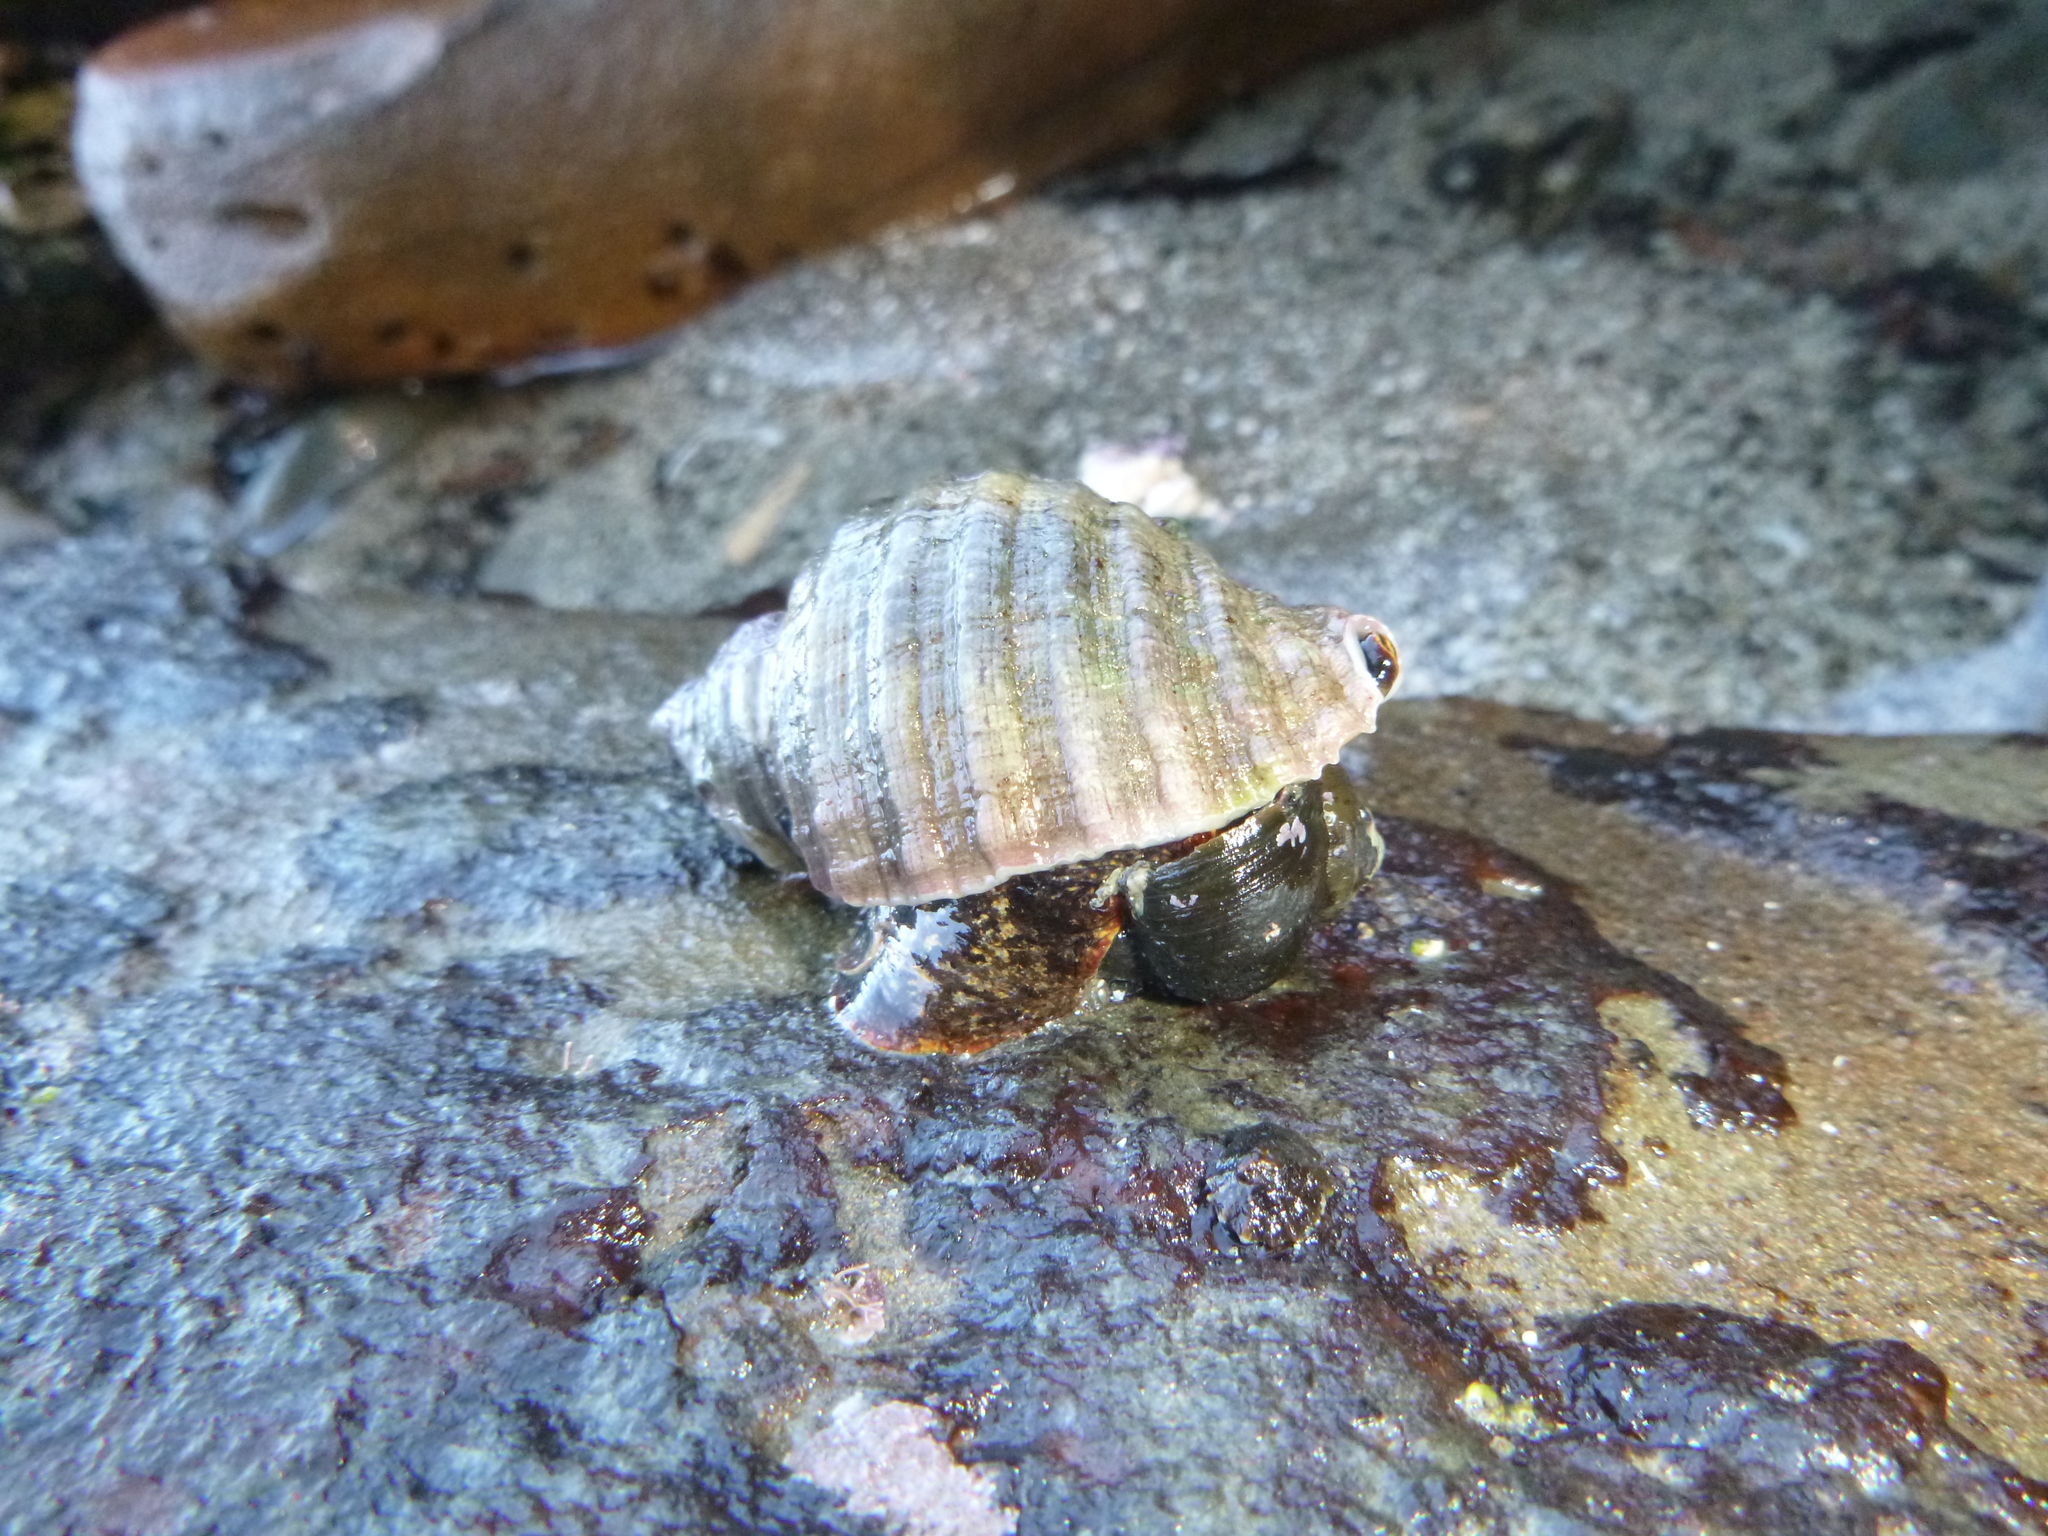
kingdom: Animalia
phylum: Mollusca
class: Gastropoda
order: Neogastropoda
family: Muricidae
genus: Dicathais
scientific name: Dicathais orbita
